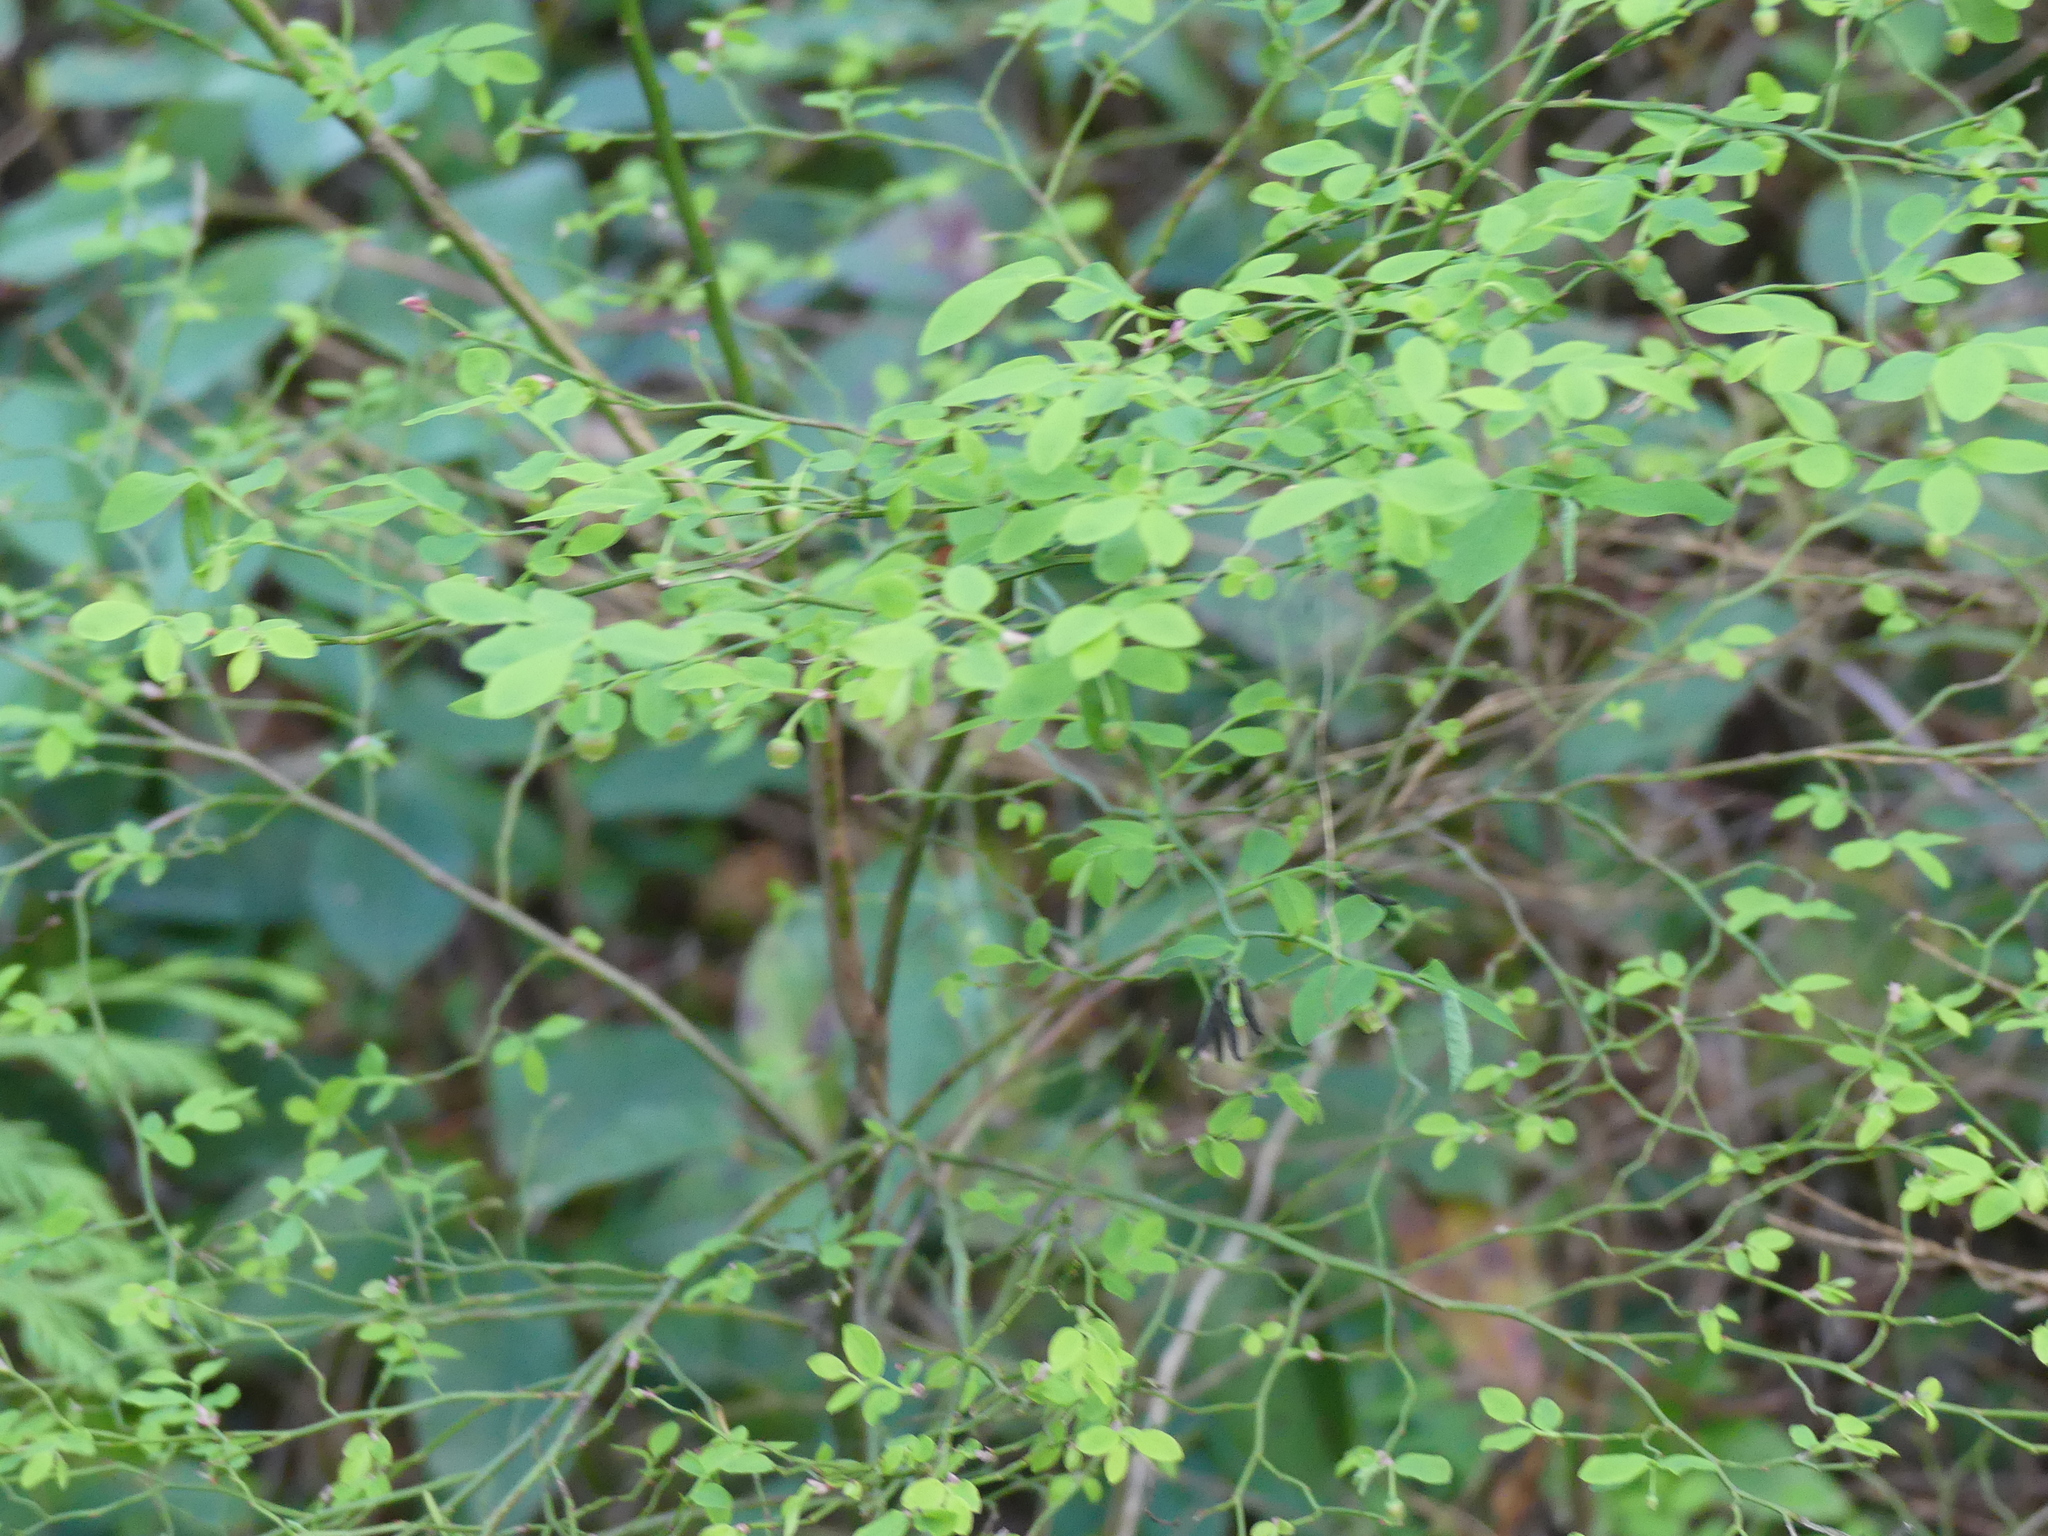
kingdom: Plantae
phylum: Tracheophyta
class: Magnoliopsida
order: Ericales
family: Ericaceae
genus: Vaccinium
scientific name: Vaccinium parvifolium
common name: Red-huckleberry
